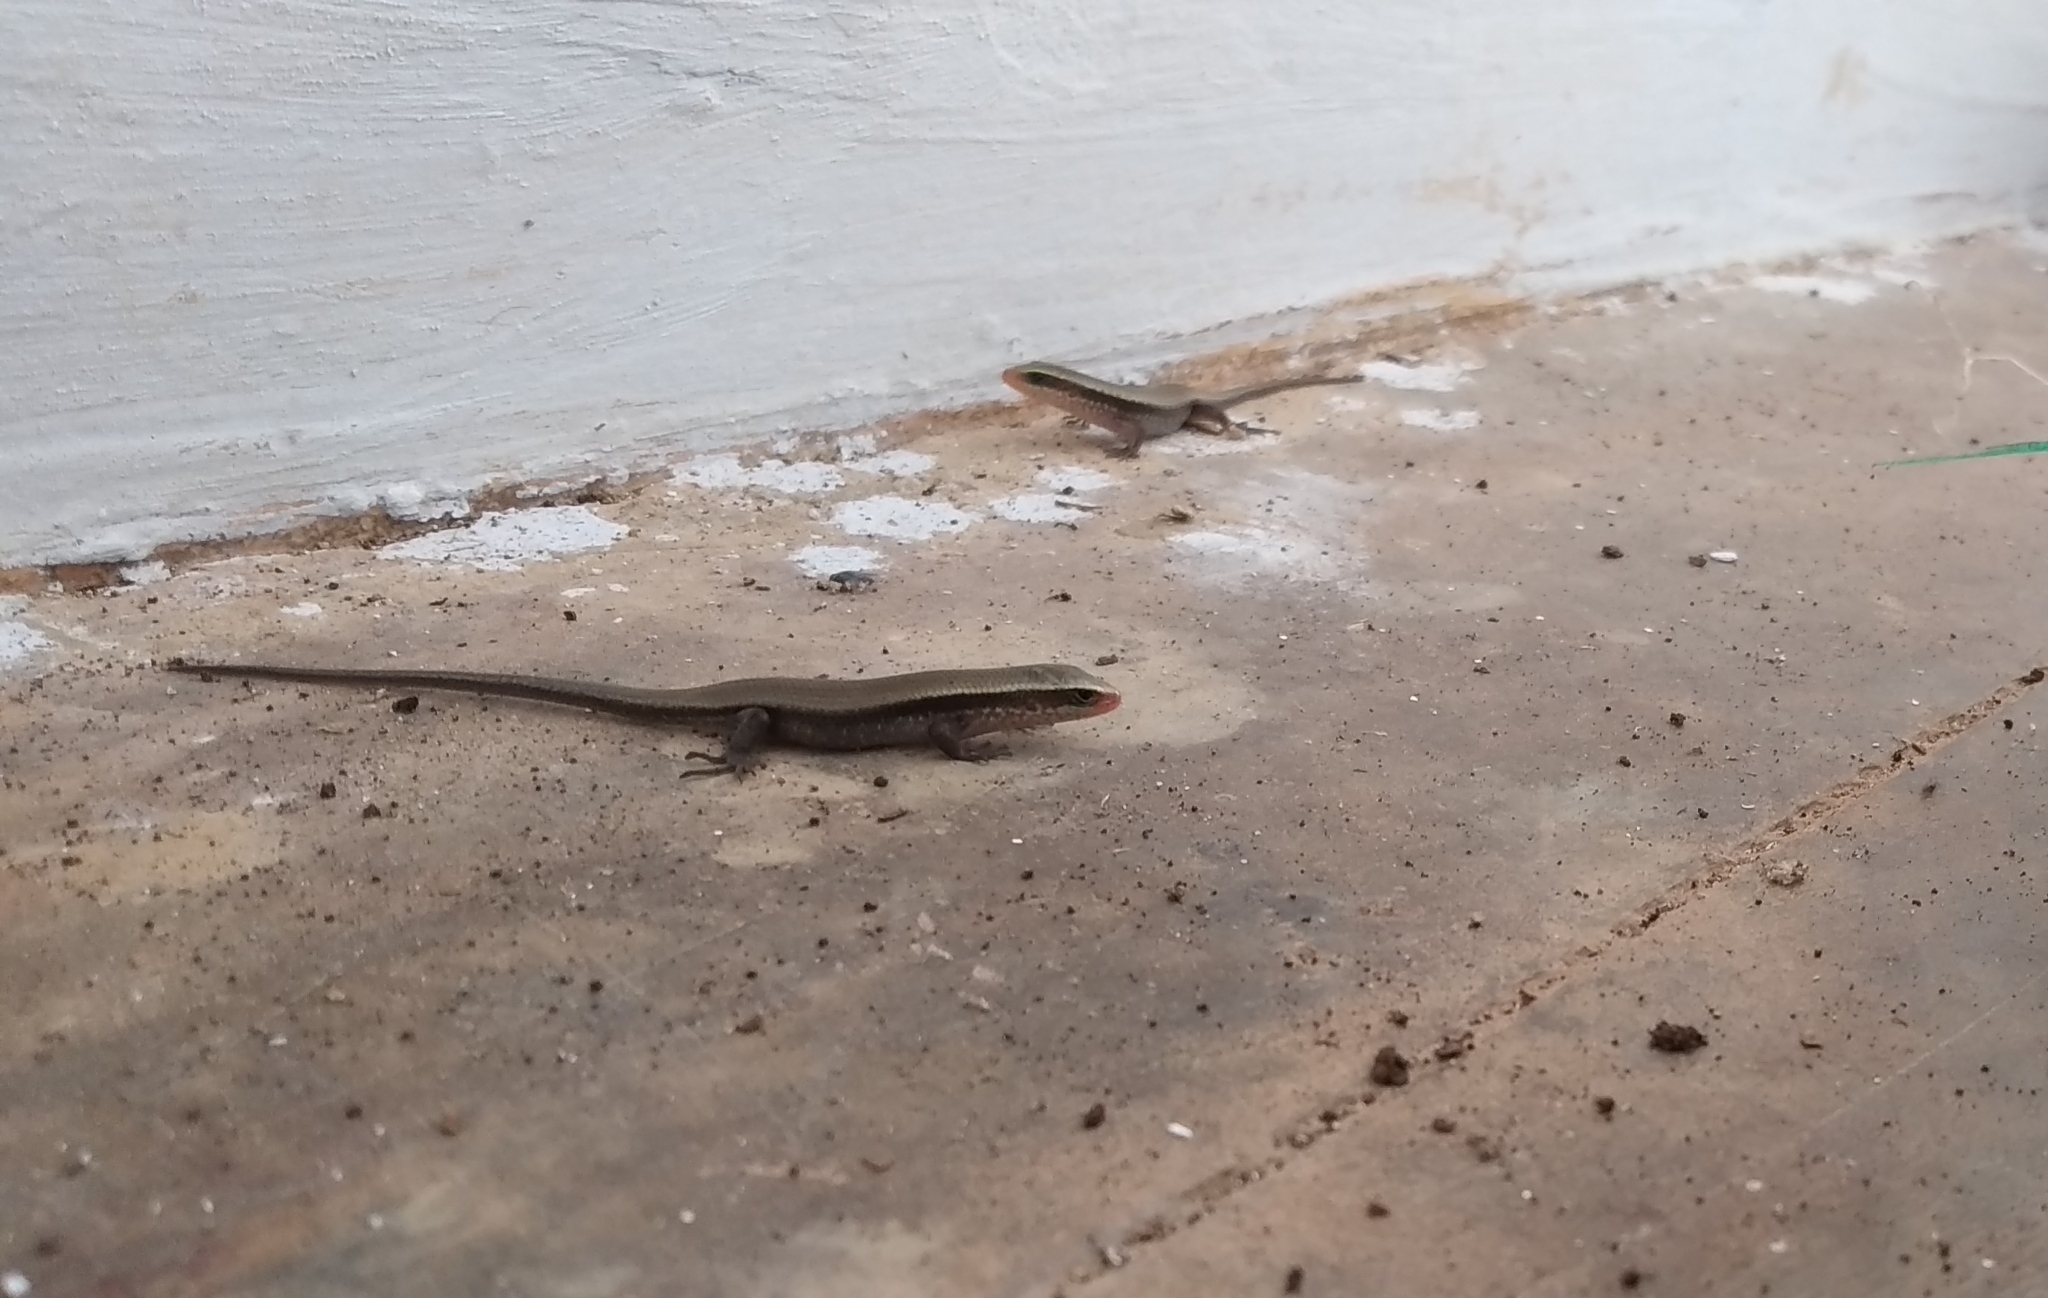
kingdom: Animalia
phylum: Chordata
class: Squamata
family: Scincidae
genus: Eutropis
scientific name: Eutropis carinata
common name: Keeled indian mabuya
